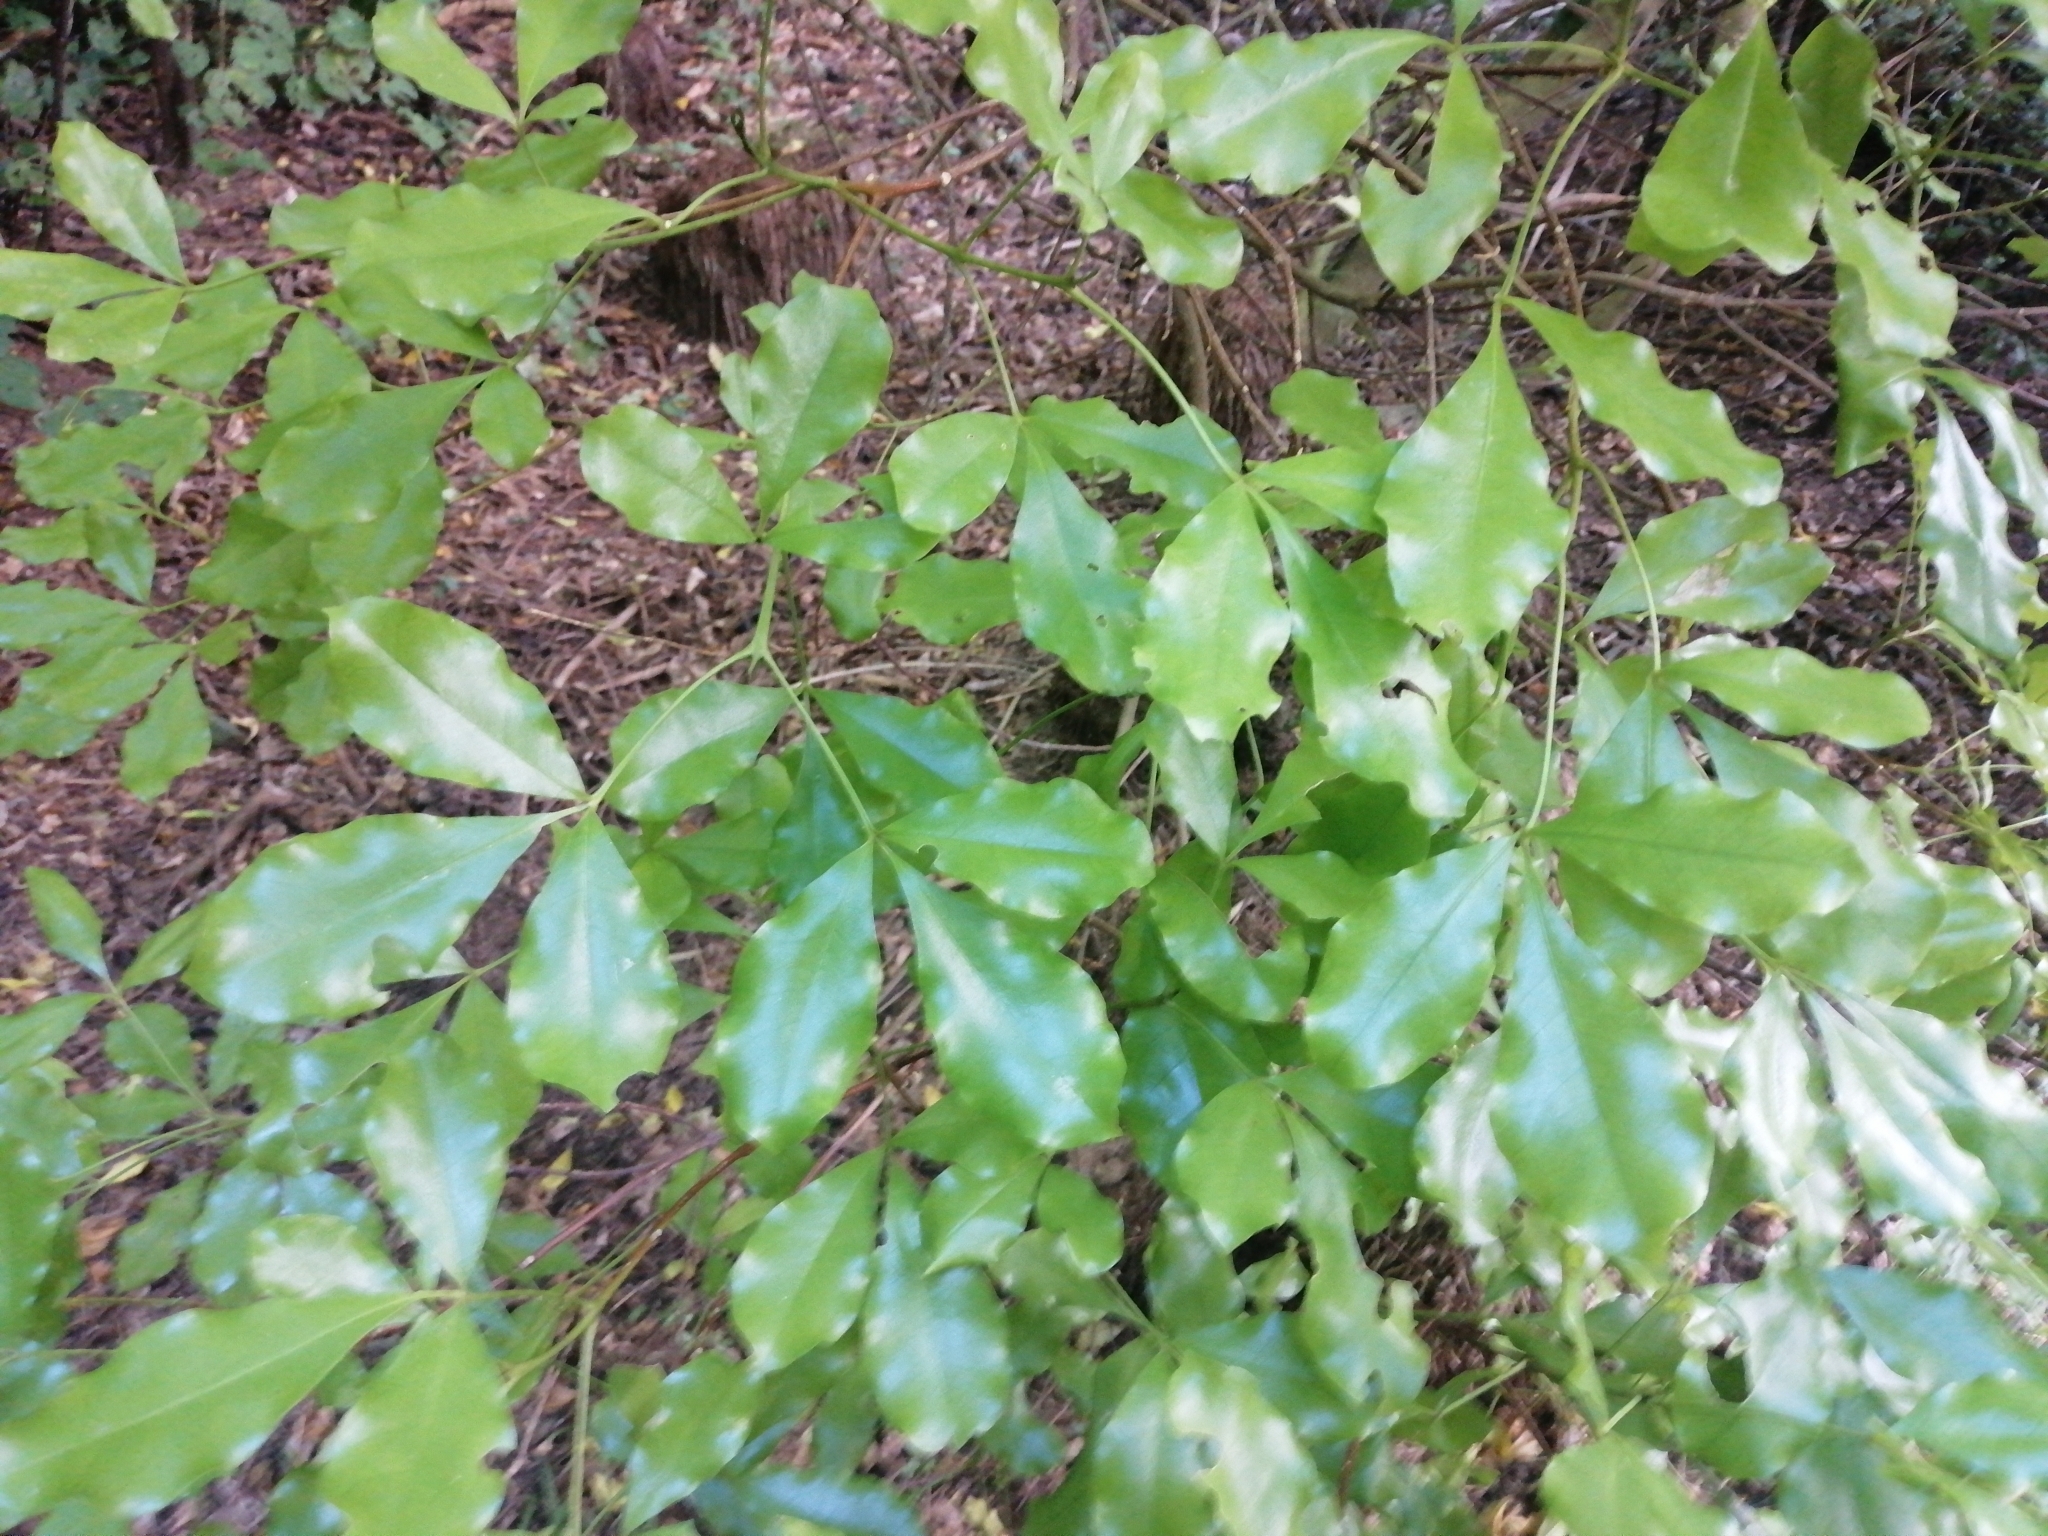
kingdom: Plantae
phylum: Tracheophyta
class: Magnoliopsida
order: Sapindales
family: Rutaceae
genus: Melicope
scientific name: Melicope ternata
